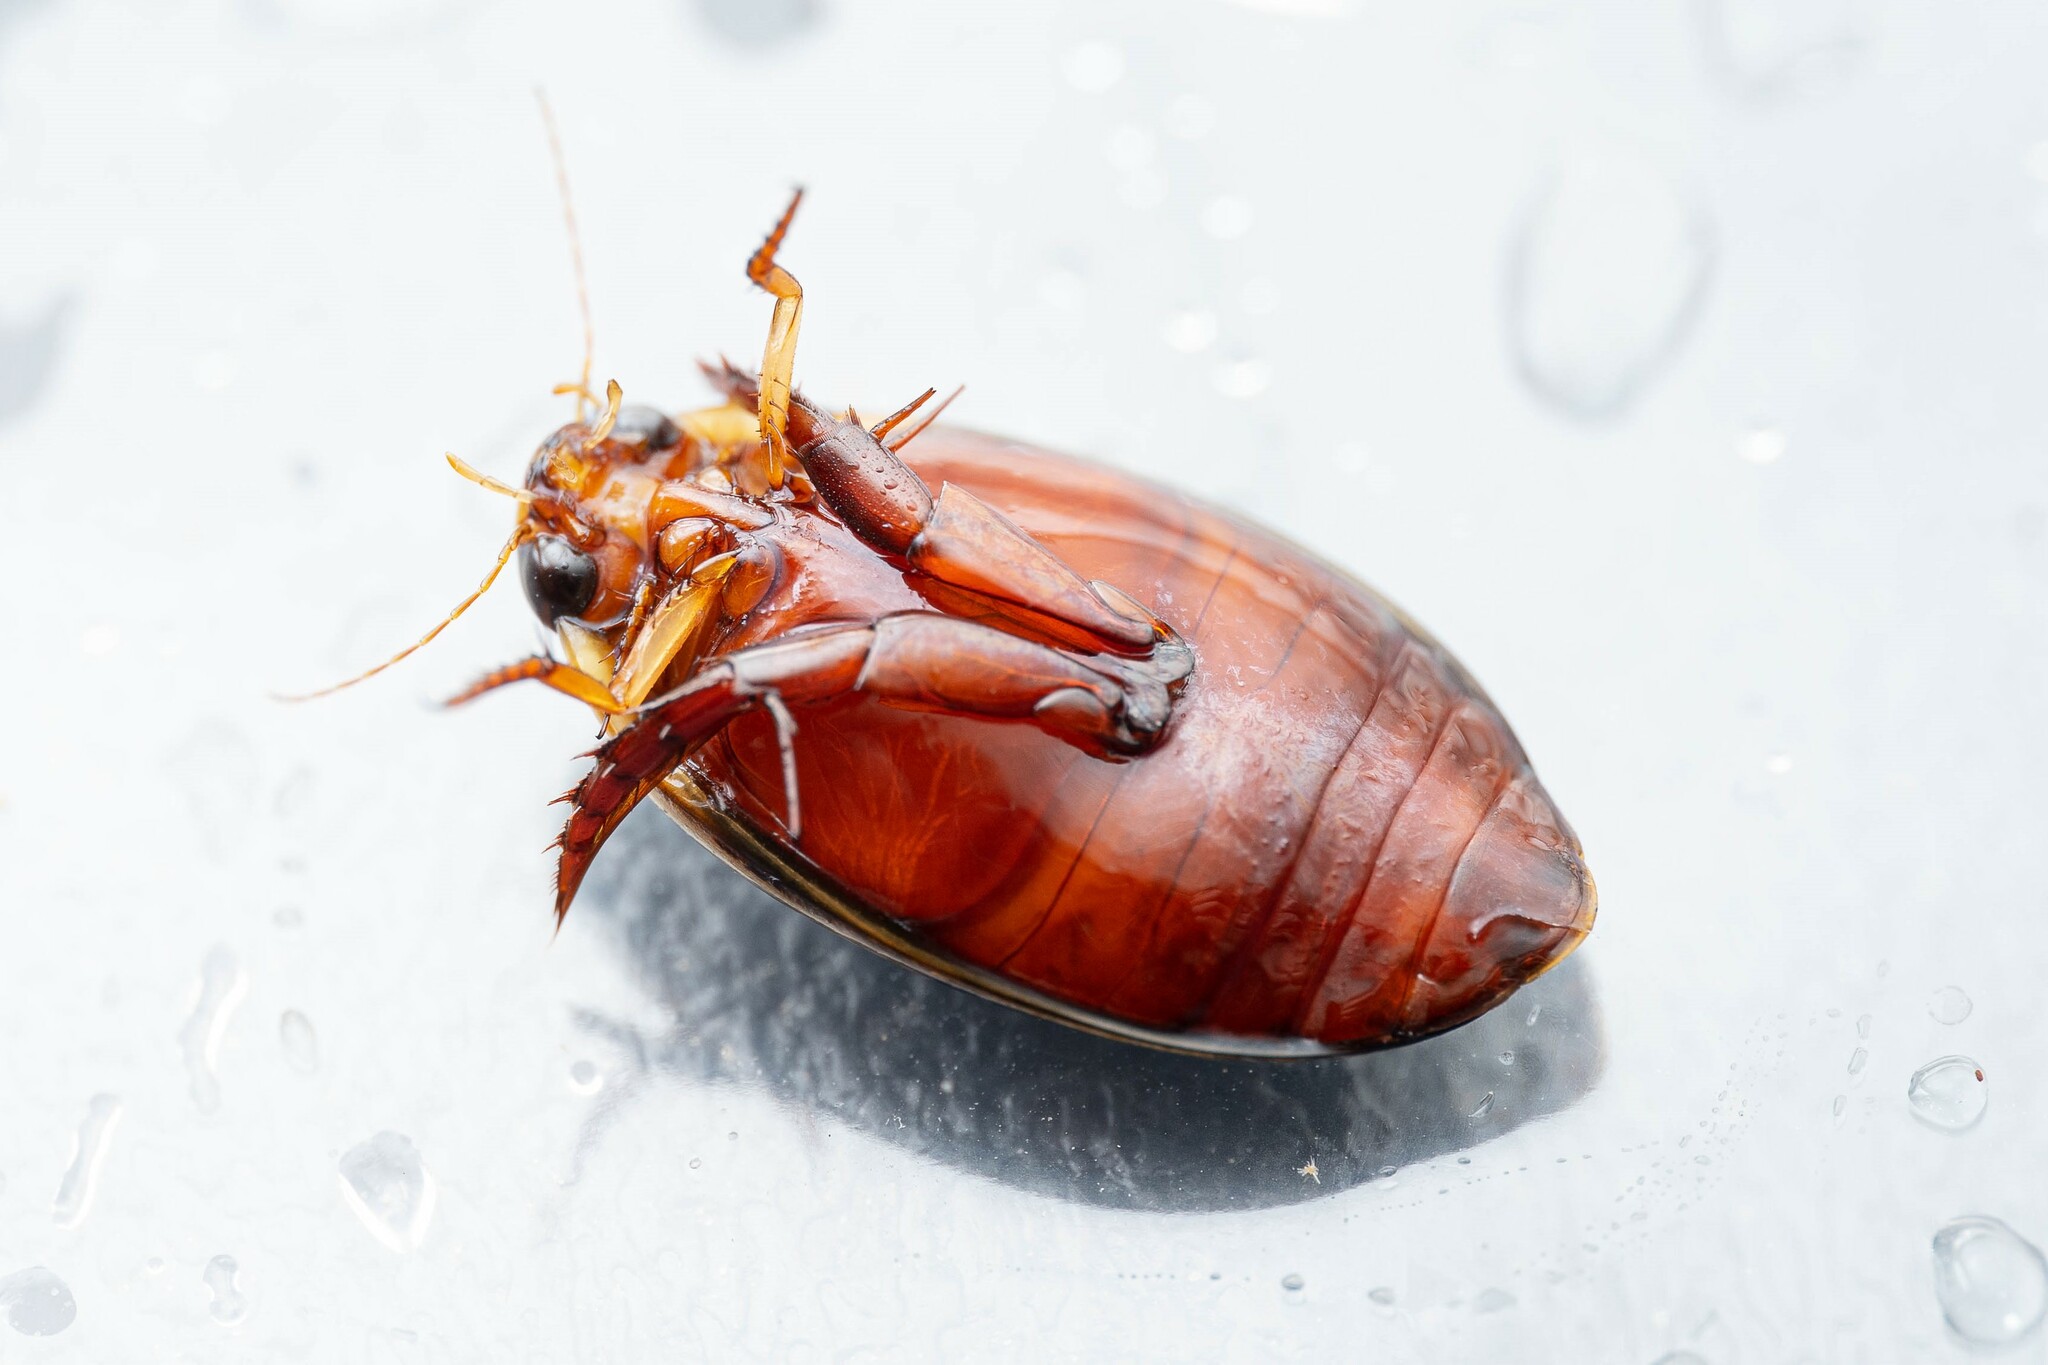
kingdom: Animalia
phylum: Arthropoda
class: Insecta
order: Coleoptera
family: Dytiscidae
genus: Thermonectus
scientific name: Thermonectus marmoratus
